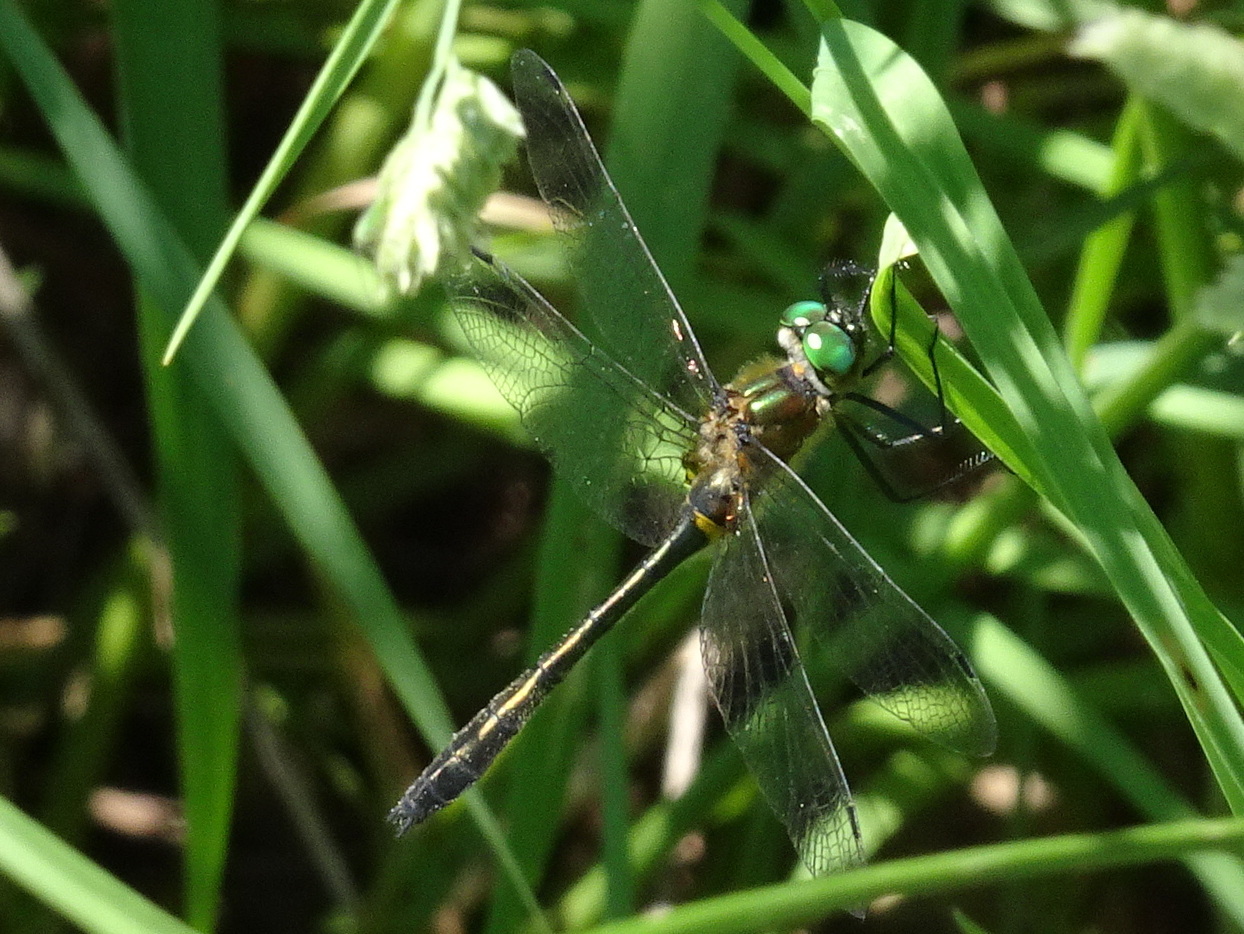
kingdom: Animalia
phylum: Arthropoda
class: Insecta
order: Odonata
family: Corduliidae
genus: Dorocordulia
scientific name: Dorocordulia libera
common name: Racket-tailed emerald
